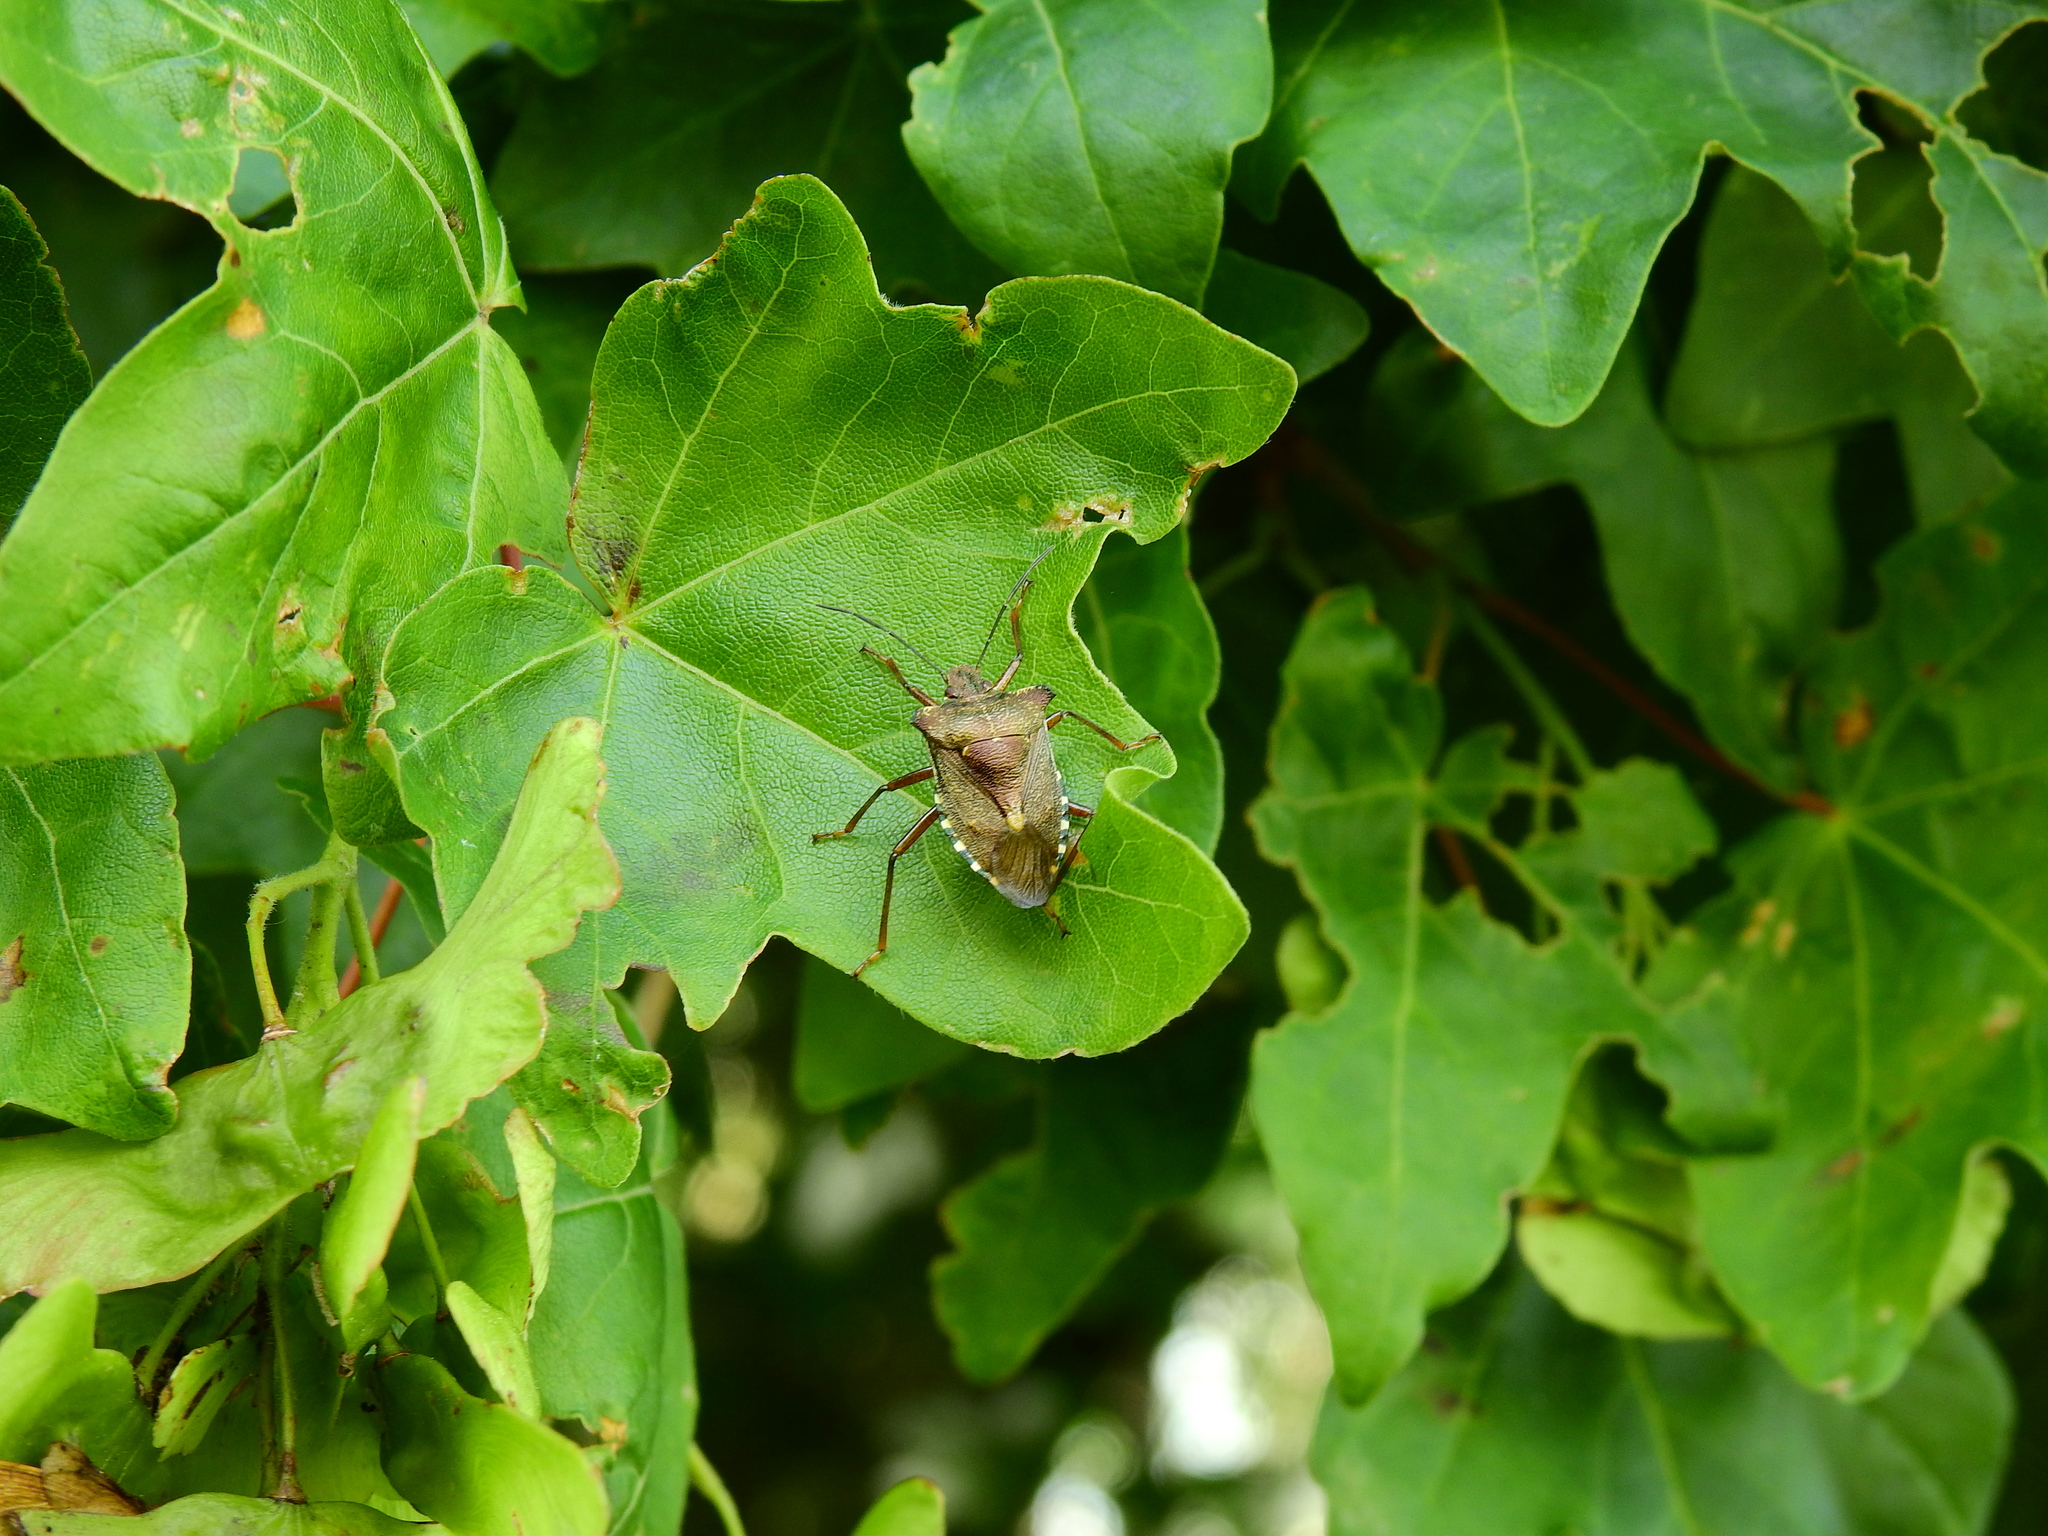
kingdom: Animalia
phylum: Arthropoda
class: Insecta
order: Hemiptera
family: Pentatomidae
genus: Pentatoma
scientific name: Pentatoma rufipes
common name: Forest bug
